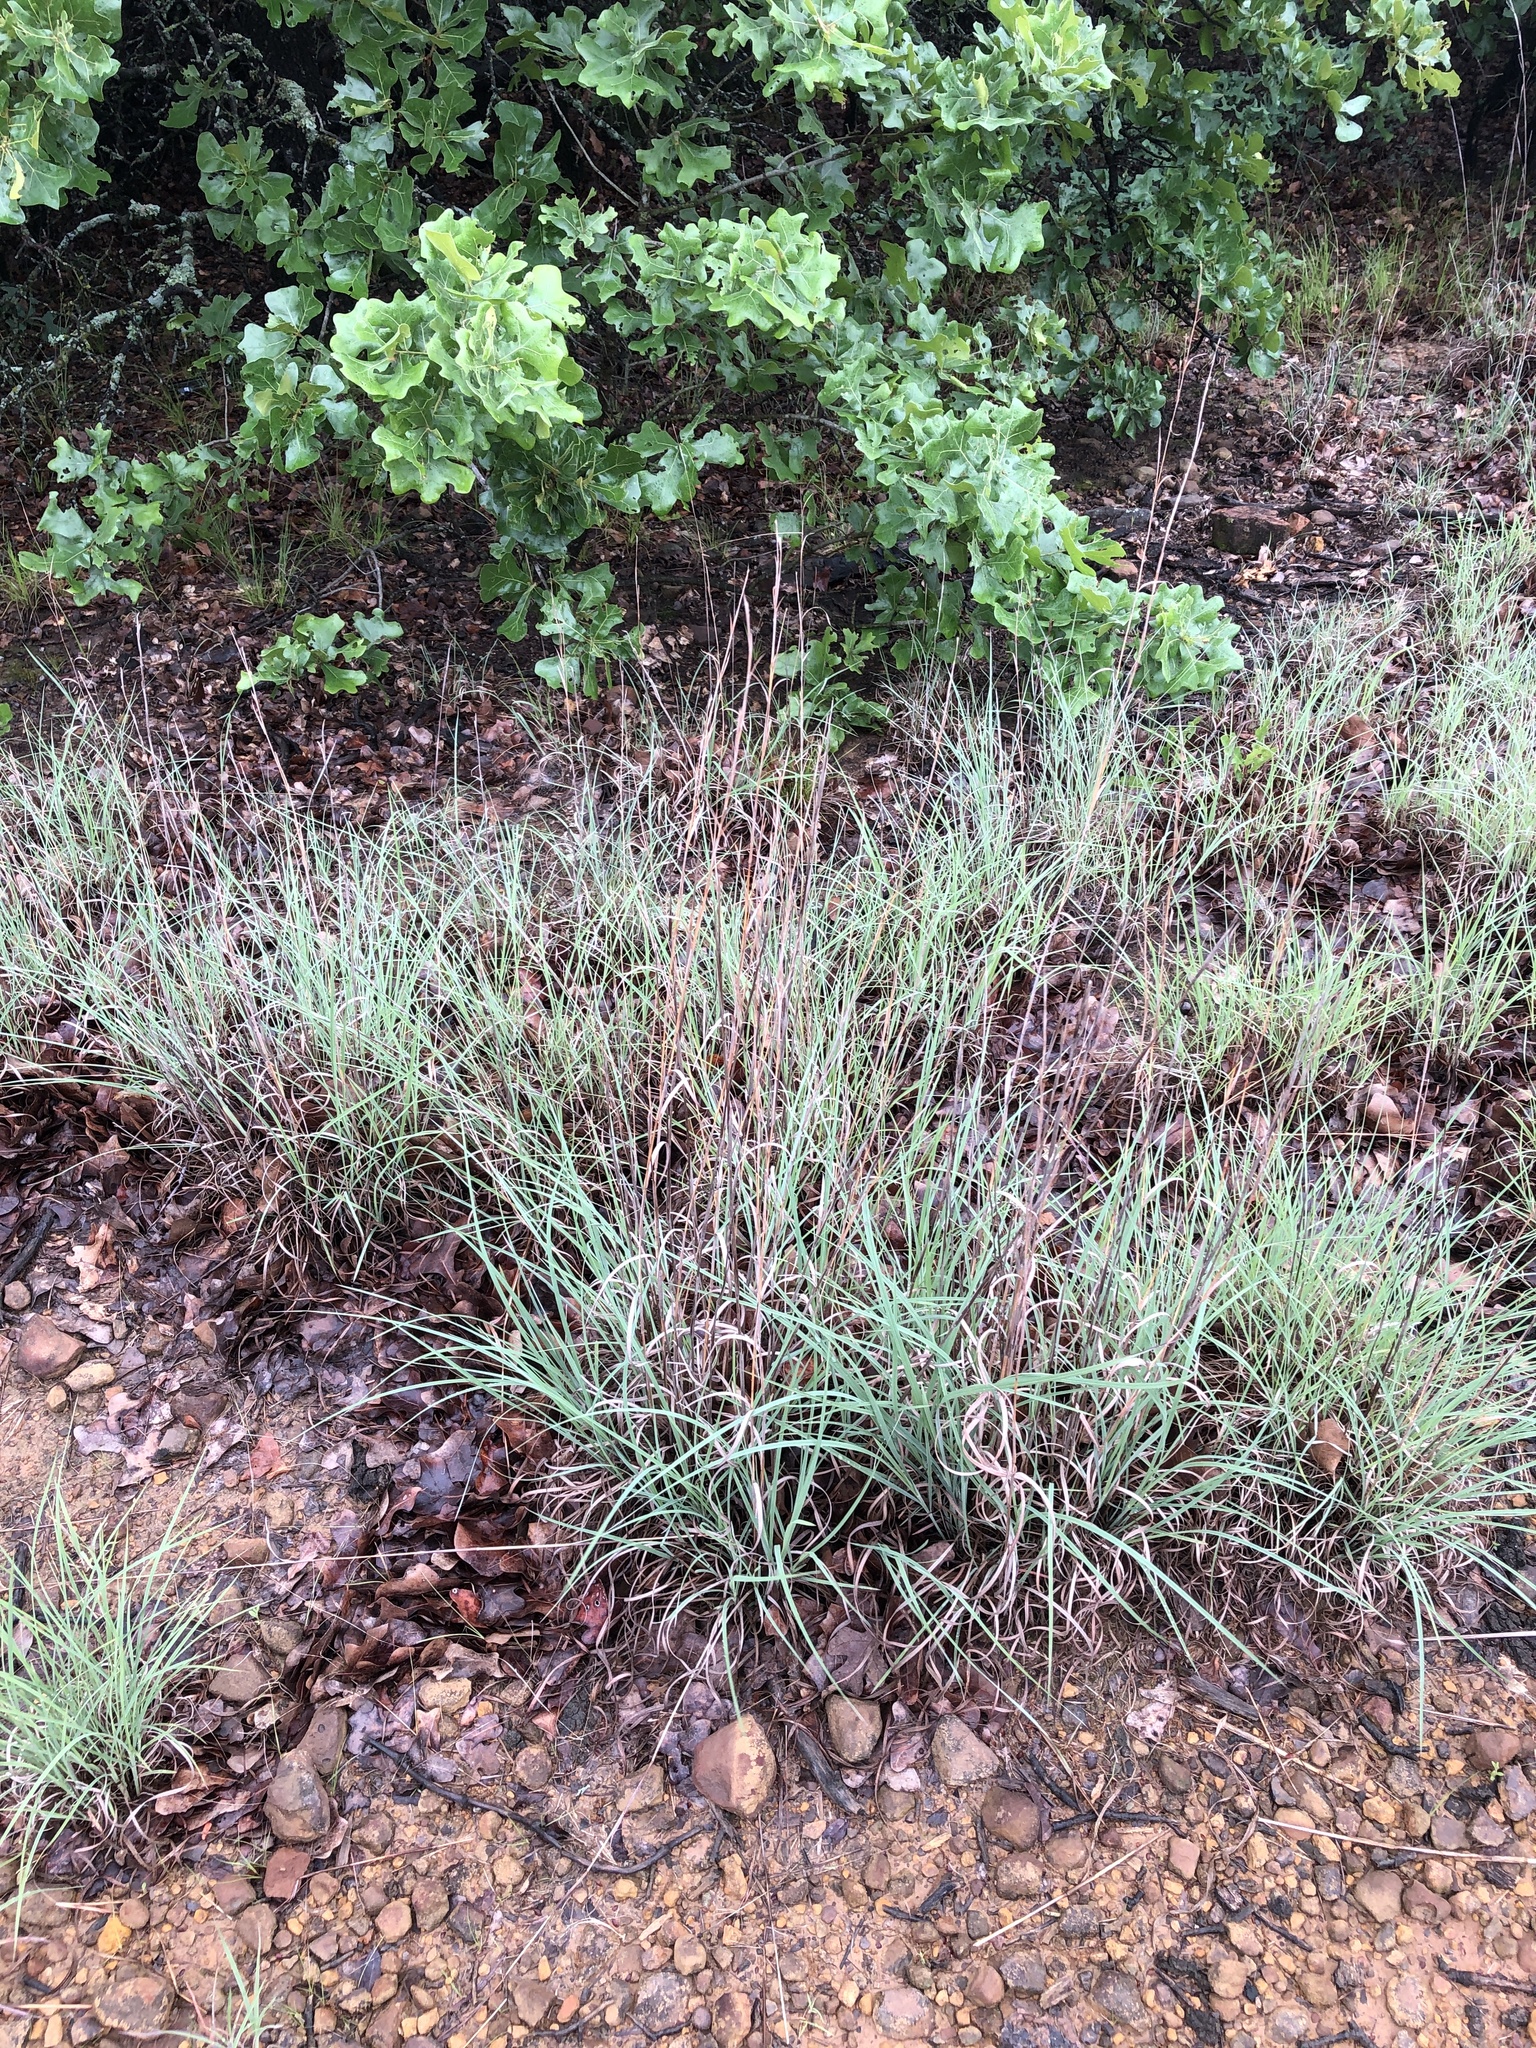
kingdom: Plantae
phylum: Tracheophyta
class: Liliopsida
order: Poales
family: Poaceae
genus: Schizachyrium
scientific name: Schizachyrium scoparium
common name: Little bluestem
